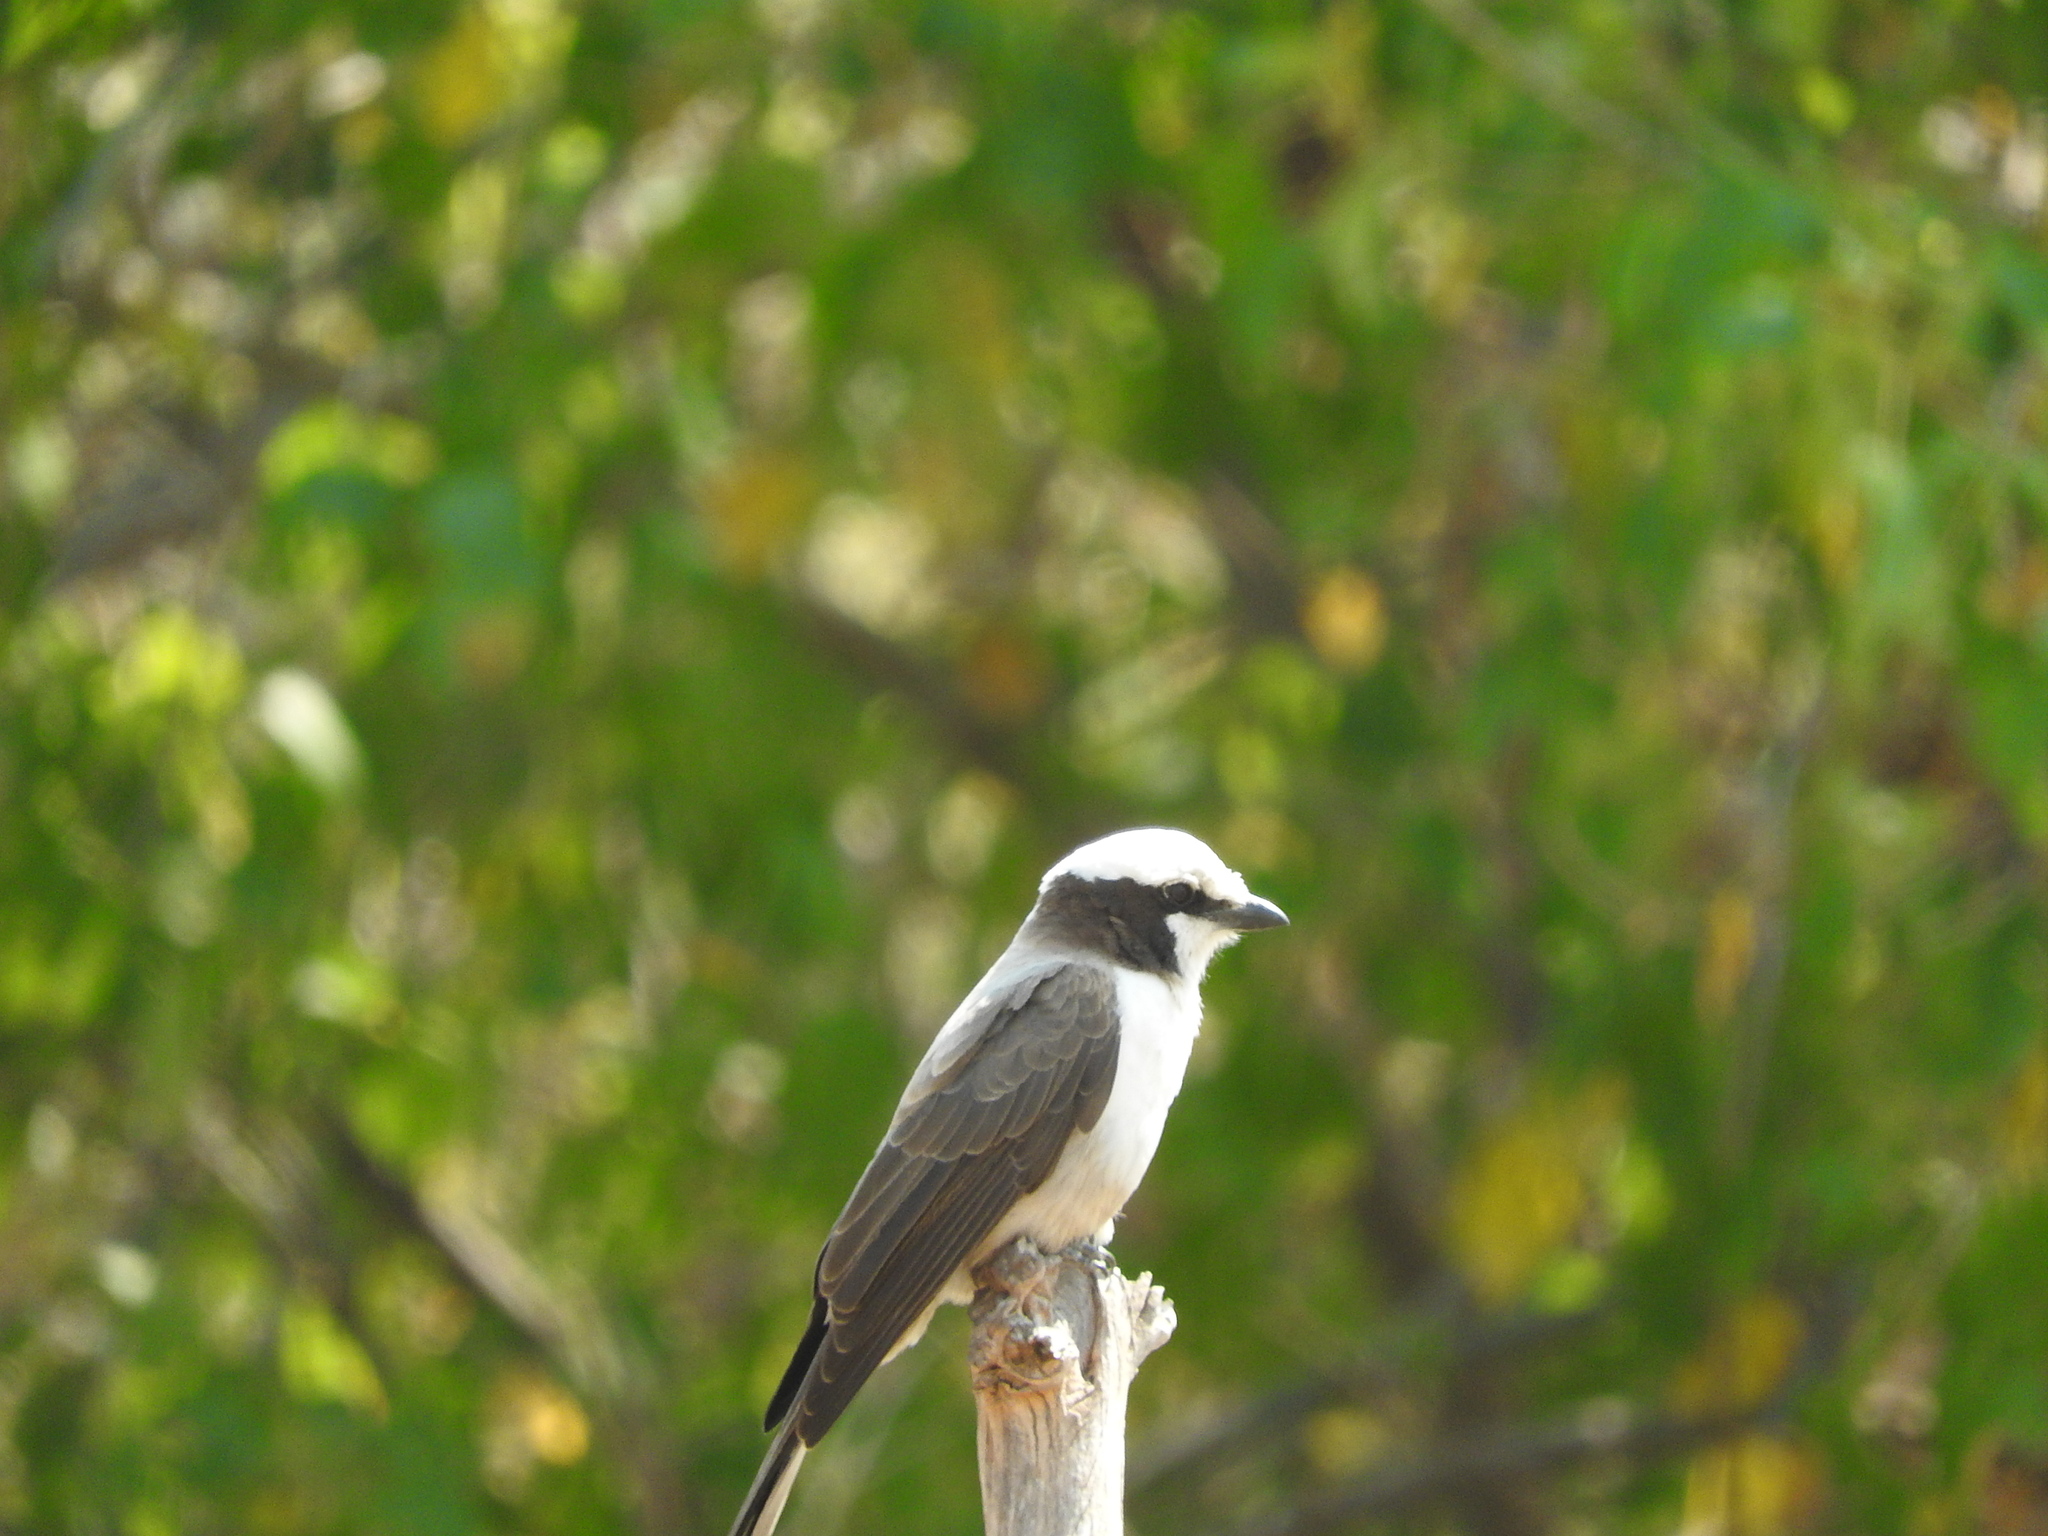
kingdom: Animalia
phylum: Chordata
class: Aves
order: Passeriformes
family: Laniidae
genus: Eurocephalus
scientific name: Eurocephalus anguitimens
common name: Southern white-crowned shrike
